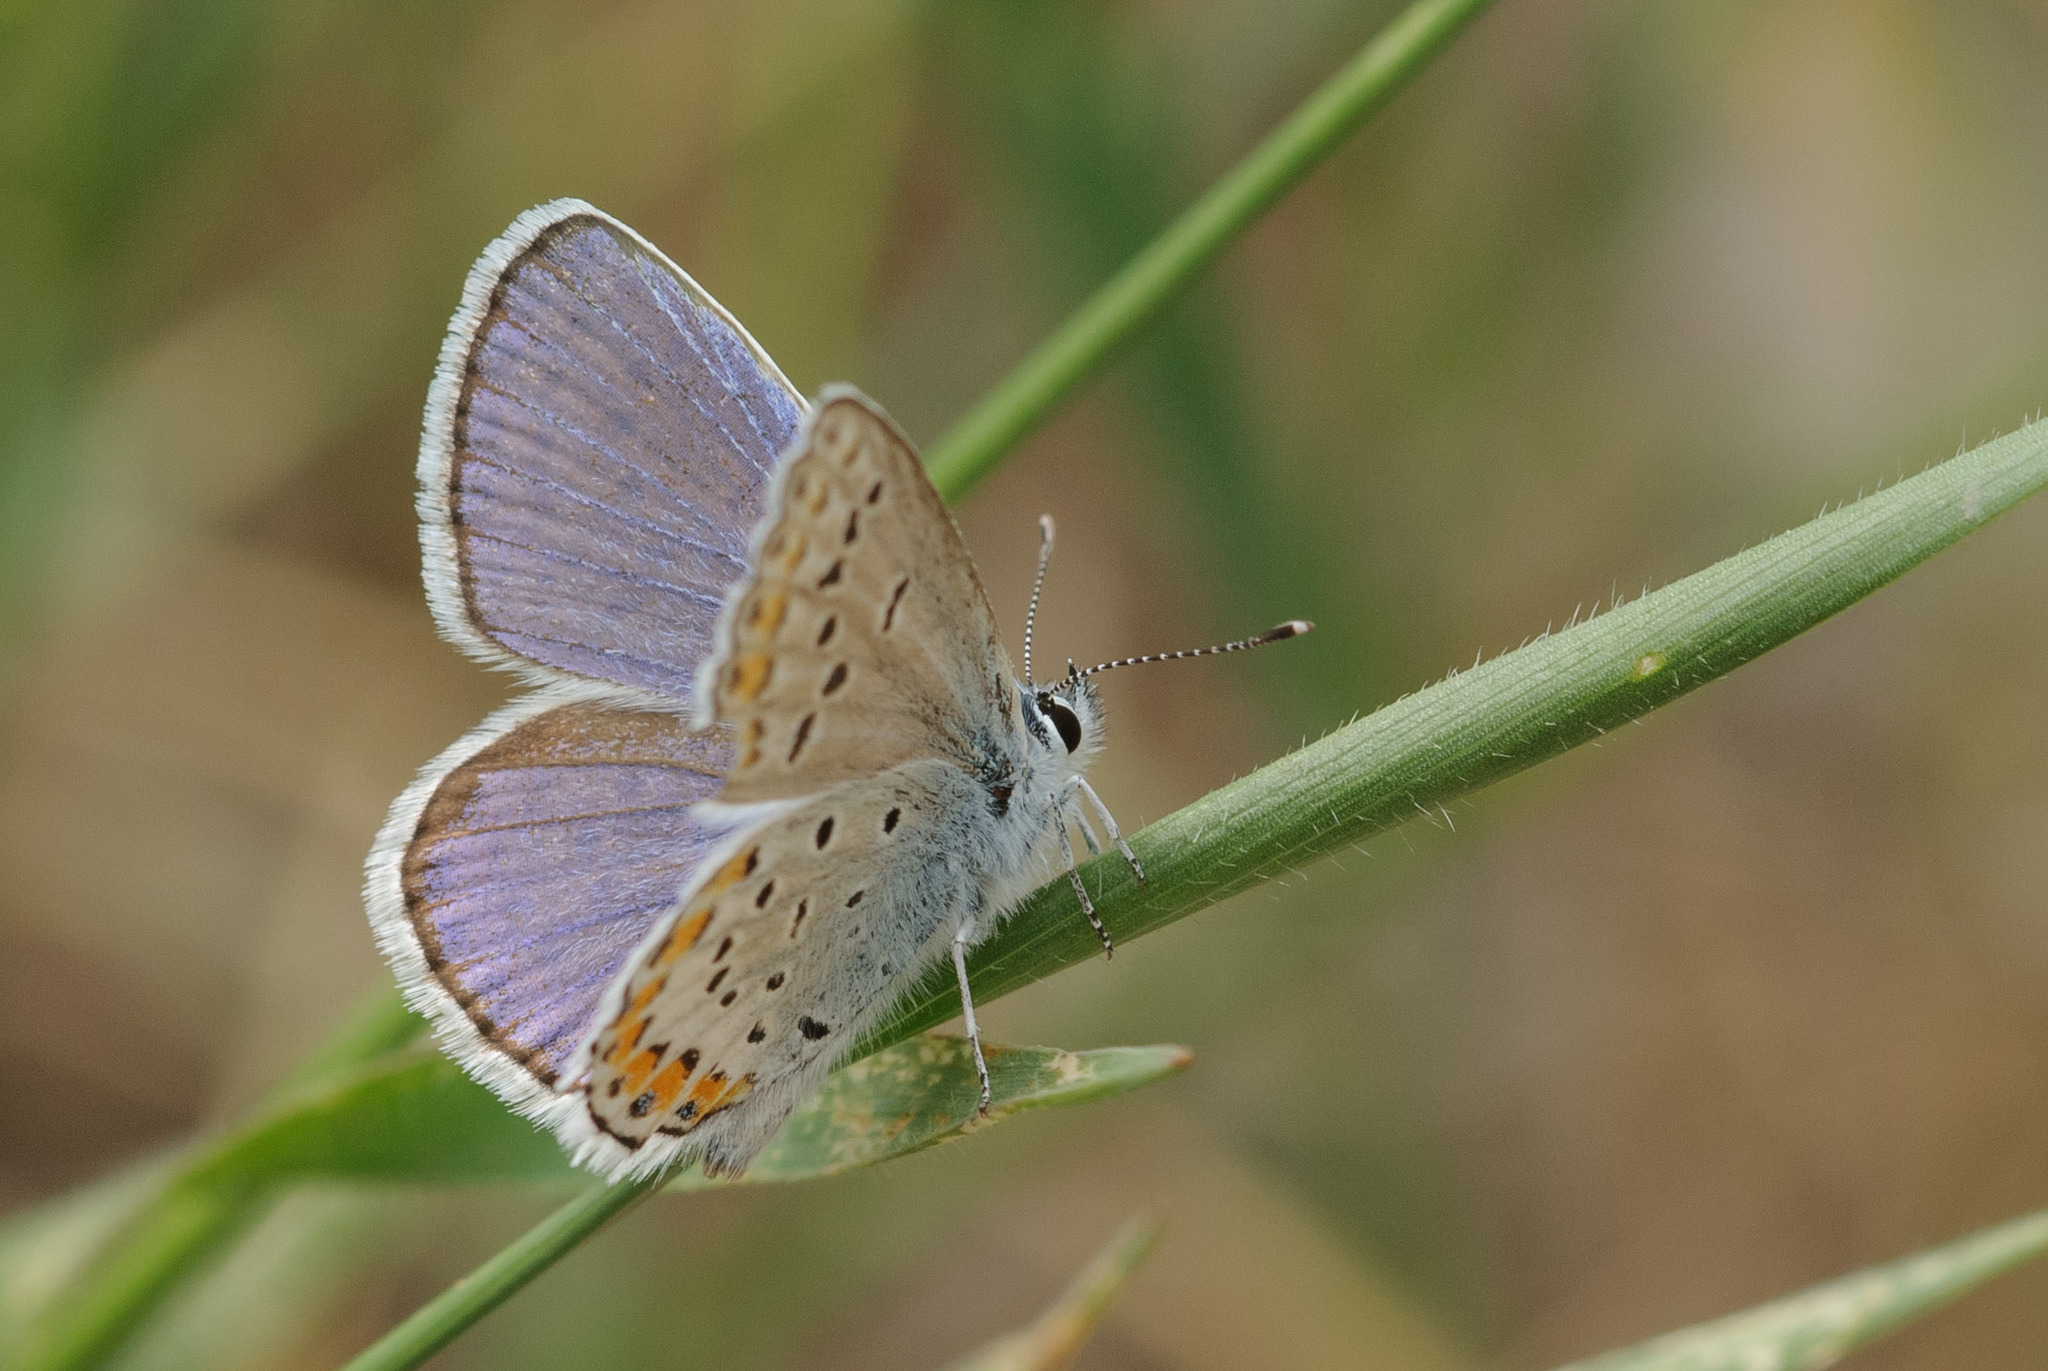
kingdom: Animalia
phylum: Arthropoda
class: Insecta
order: Lepidoptera
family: Lycaenidae
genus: Lycaeides
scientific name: Lycaeides melissa
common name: Melissa blue
